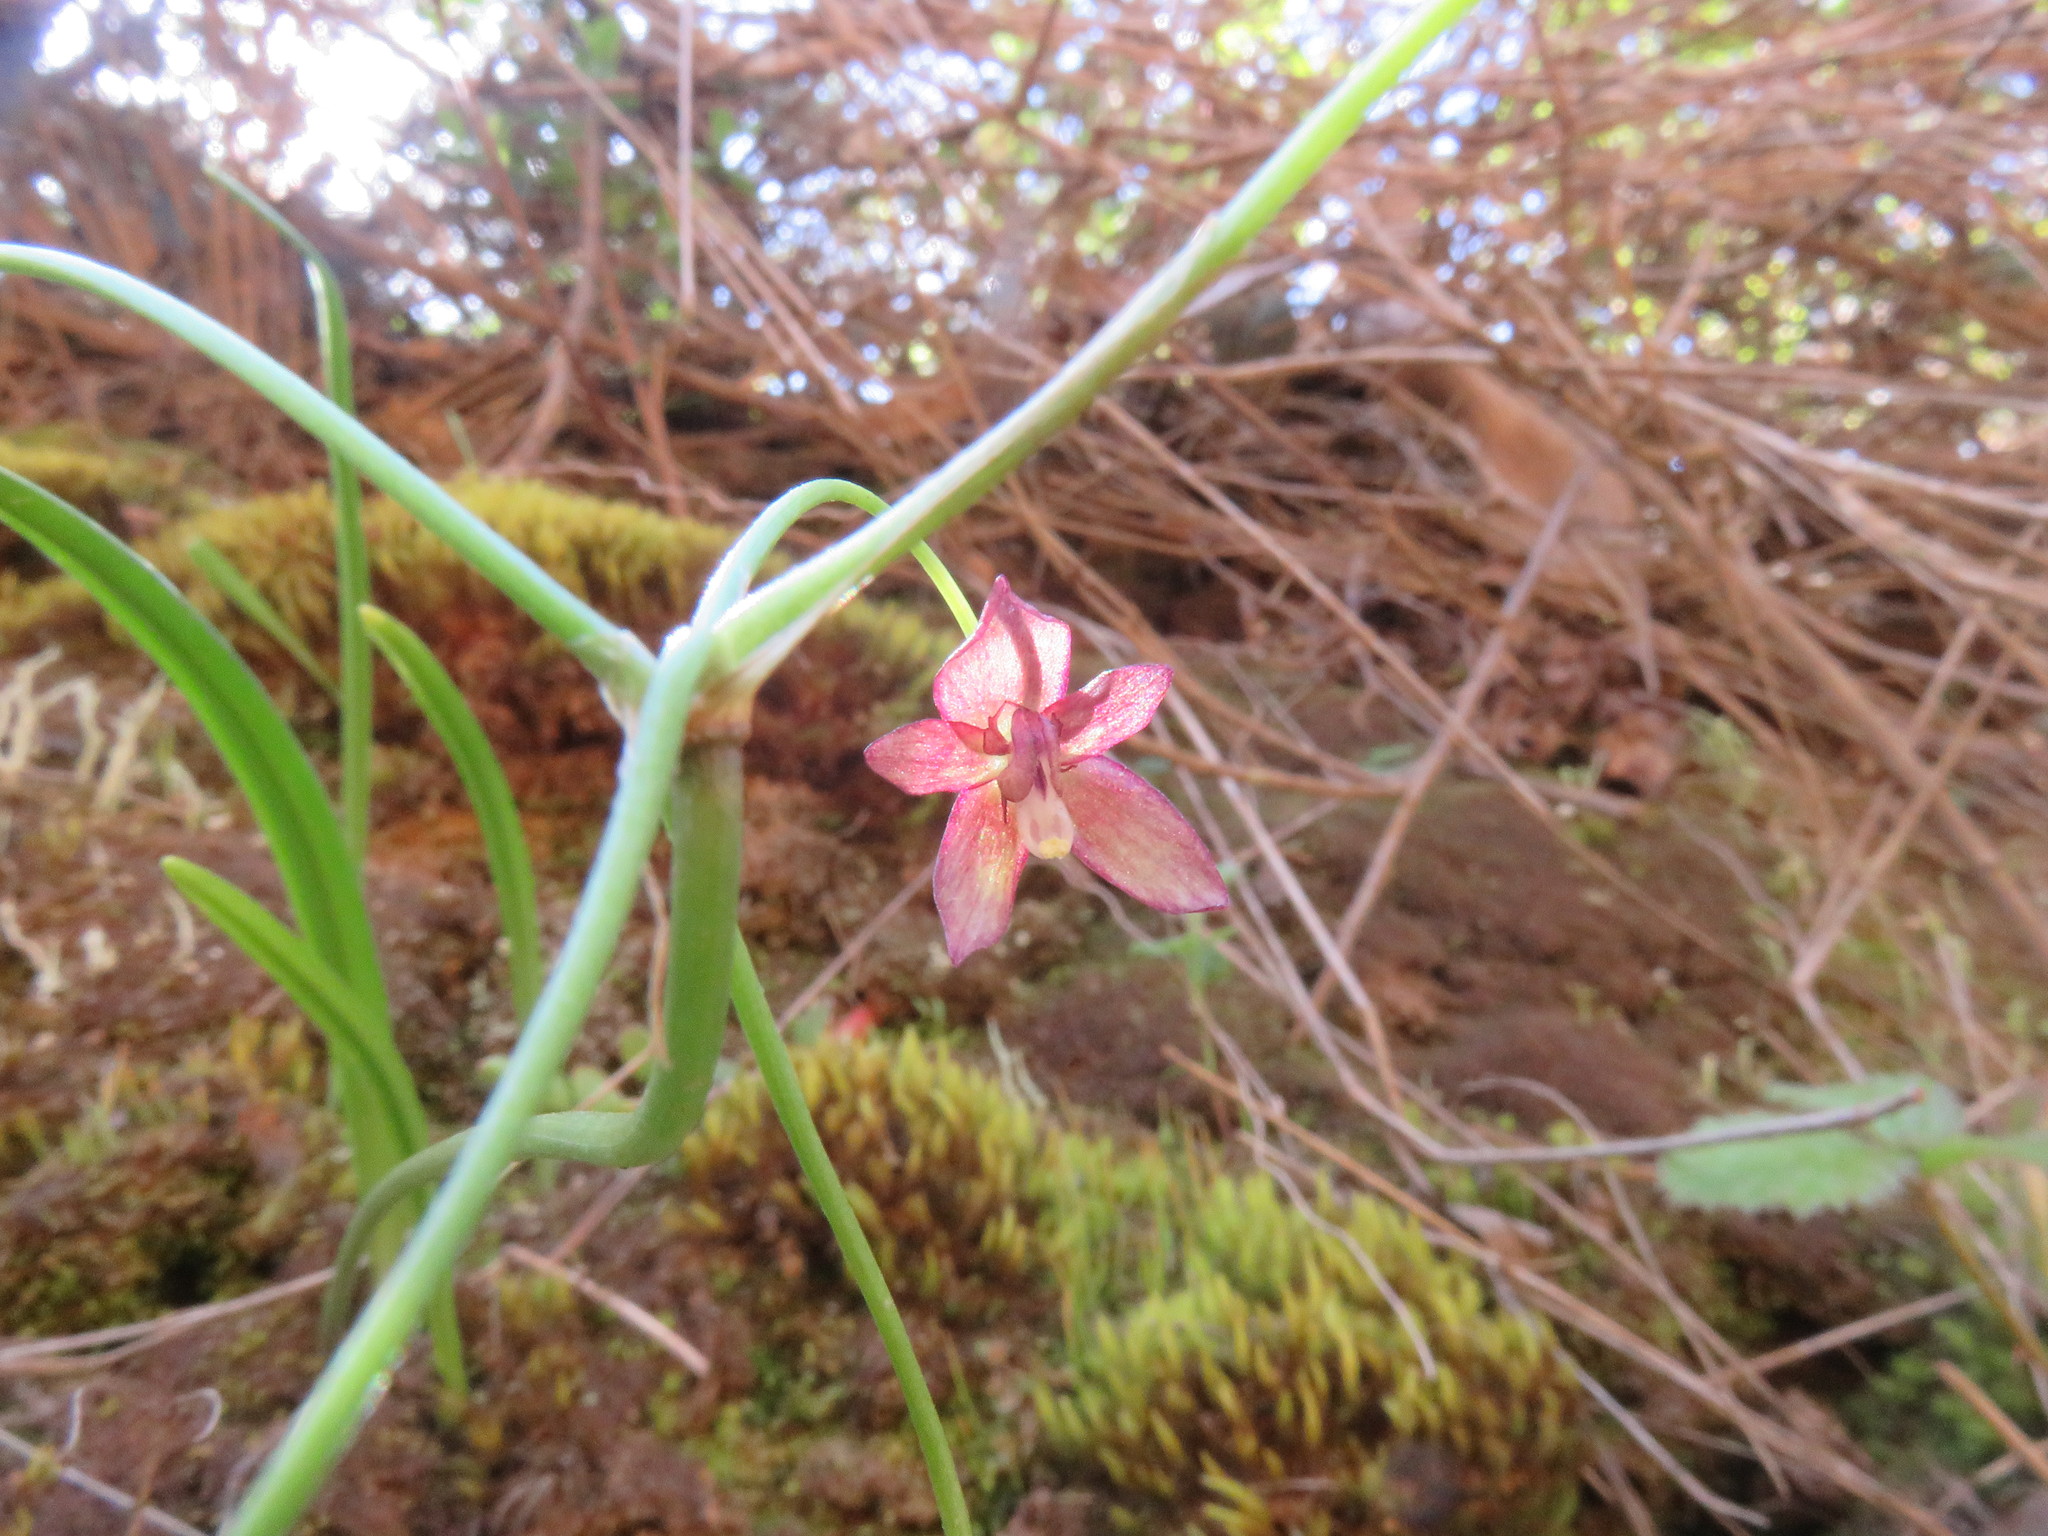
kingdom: Plantae
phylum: Tracheophyta
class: Liliopsida
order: Asparagales
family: Amaryllidaceae
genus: Gilliesia
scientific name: Gilliesia montana
